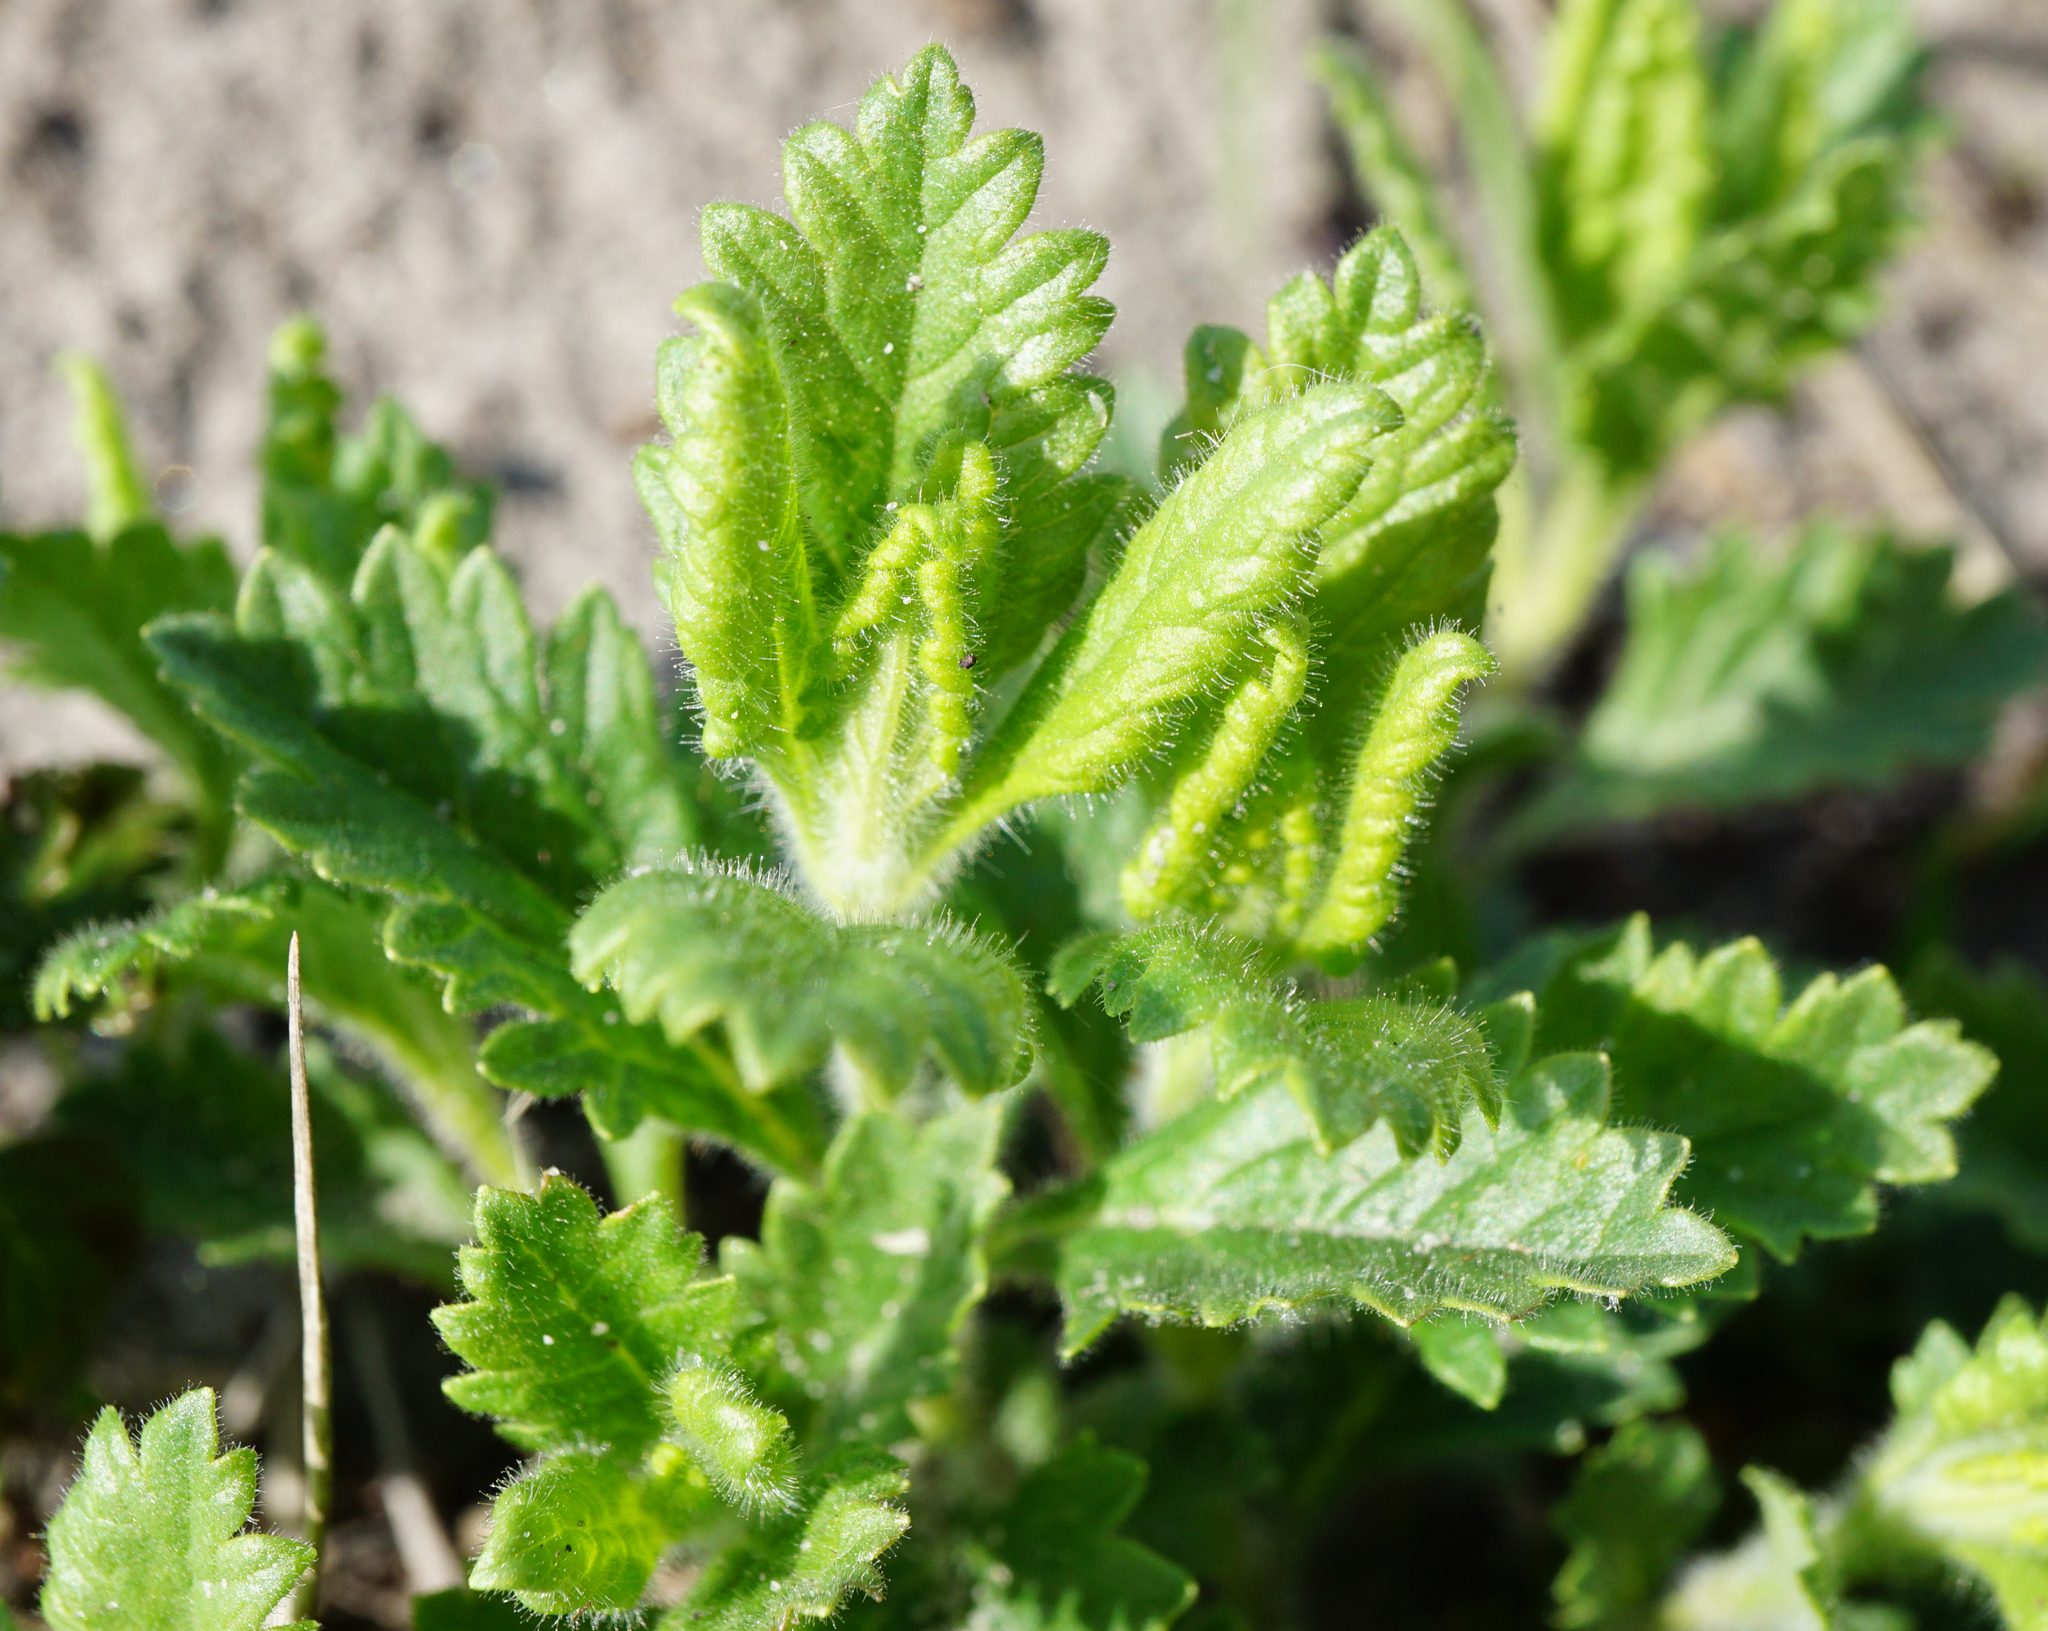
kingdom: Plantae
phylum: Tracheophyta
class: Magnoliopsida
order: Lamiales
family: Lamiaceae
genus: Teucrium
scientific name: Teucrium chamaedrys
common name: Wall germander
